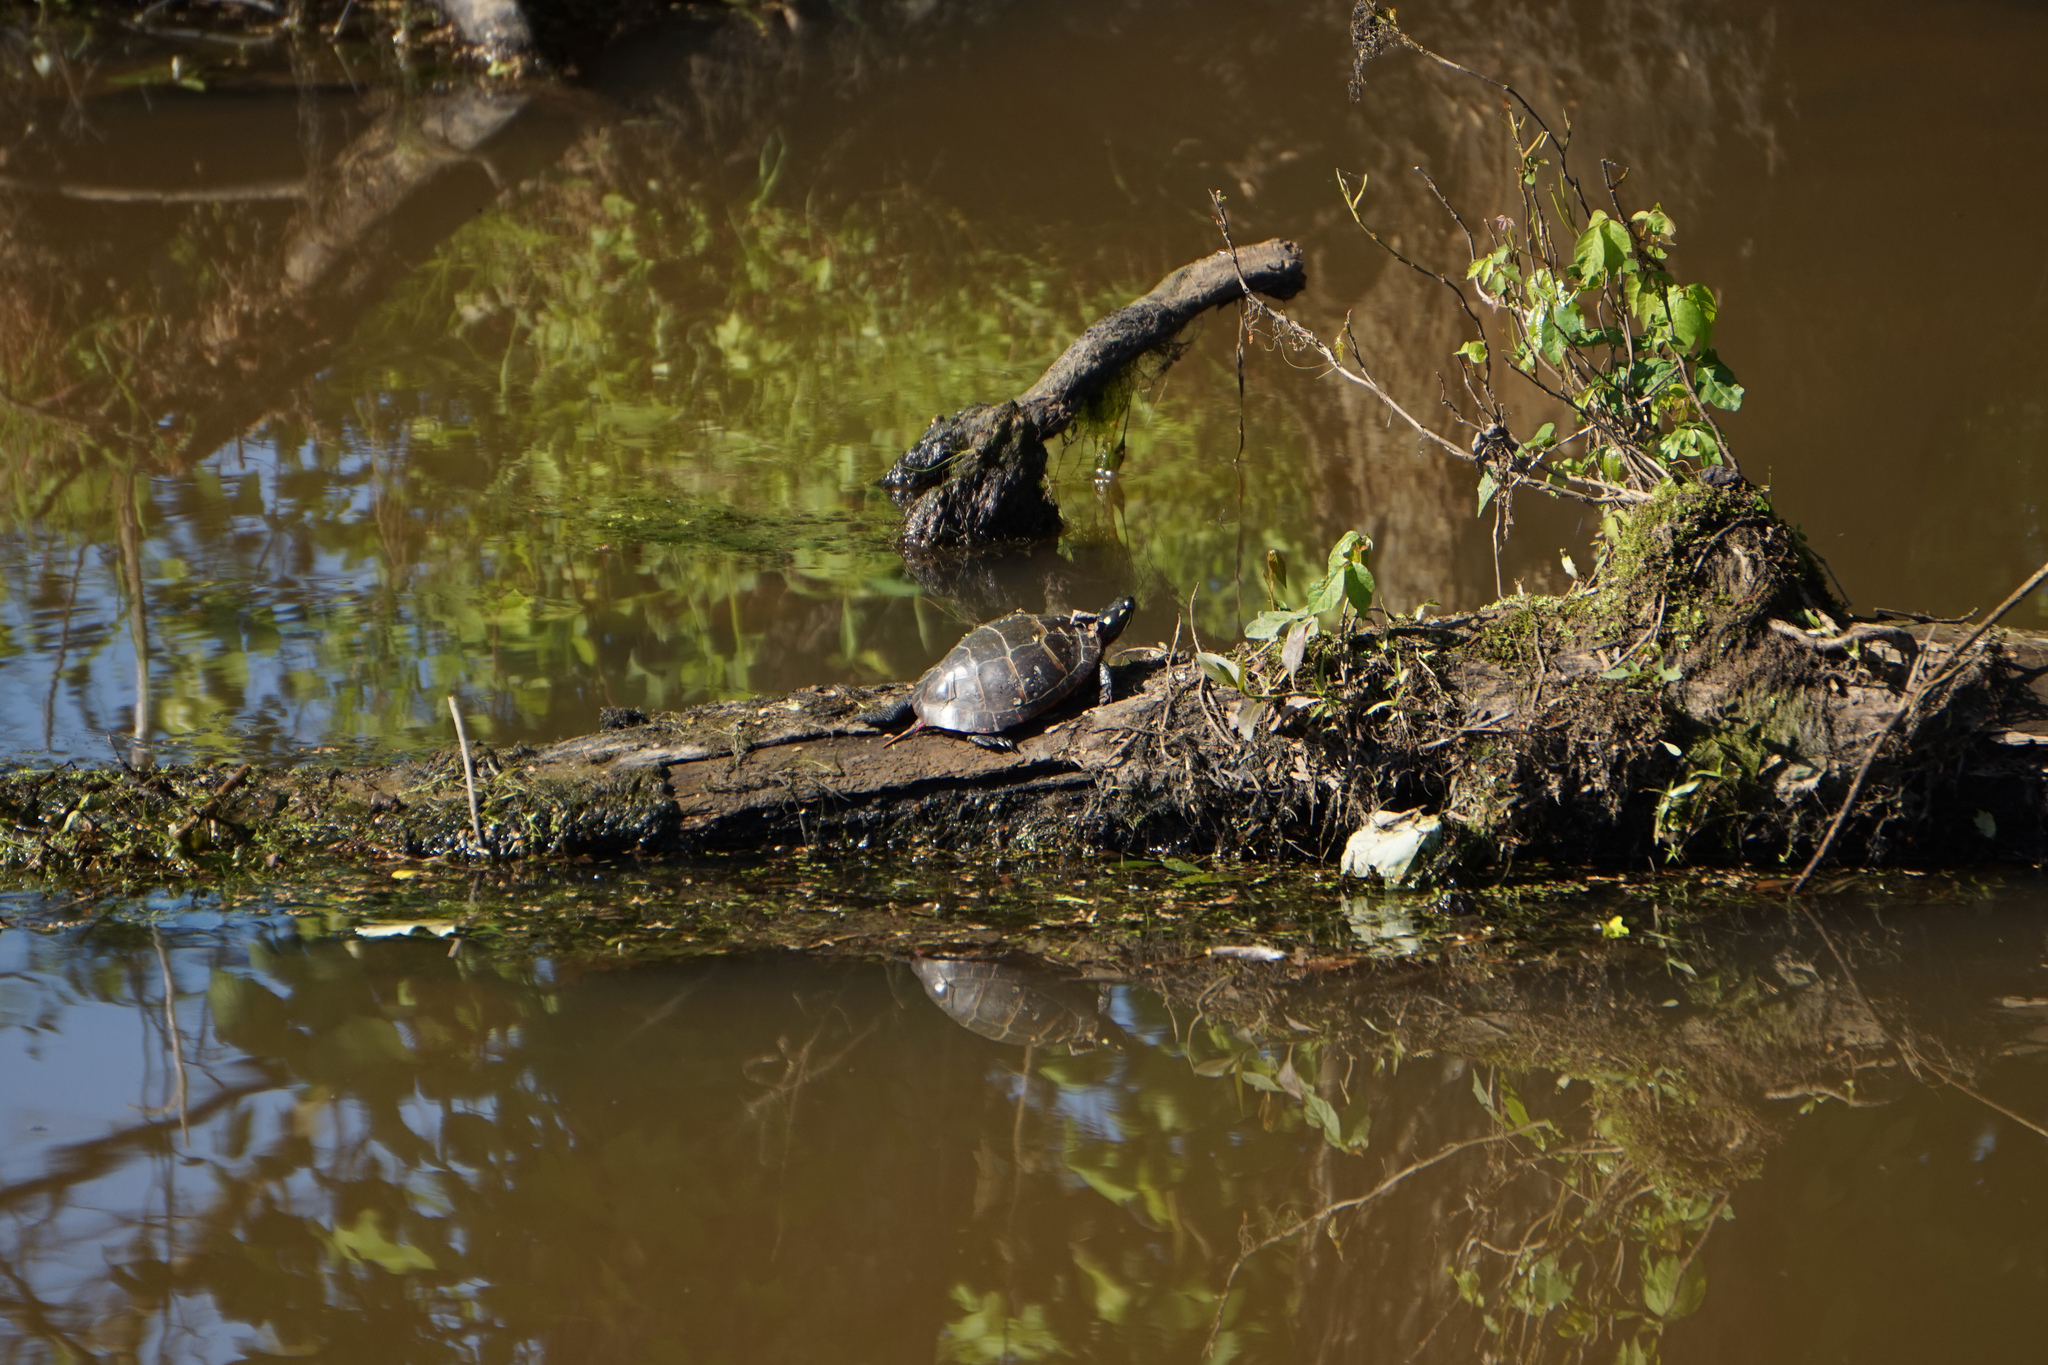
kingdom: Animalia
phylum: Chordata
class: Testudines
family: Emydidae
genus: Chrysemys
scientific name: Chrysemys picta
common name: Painted turtle
